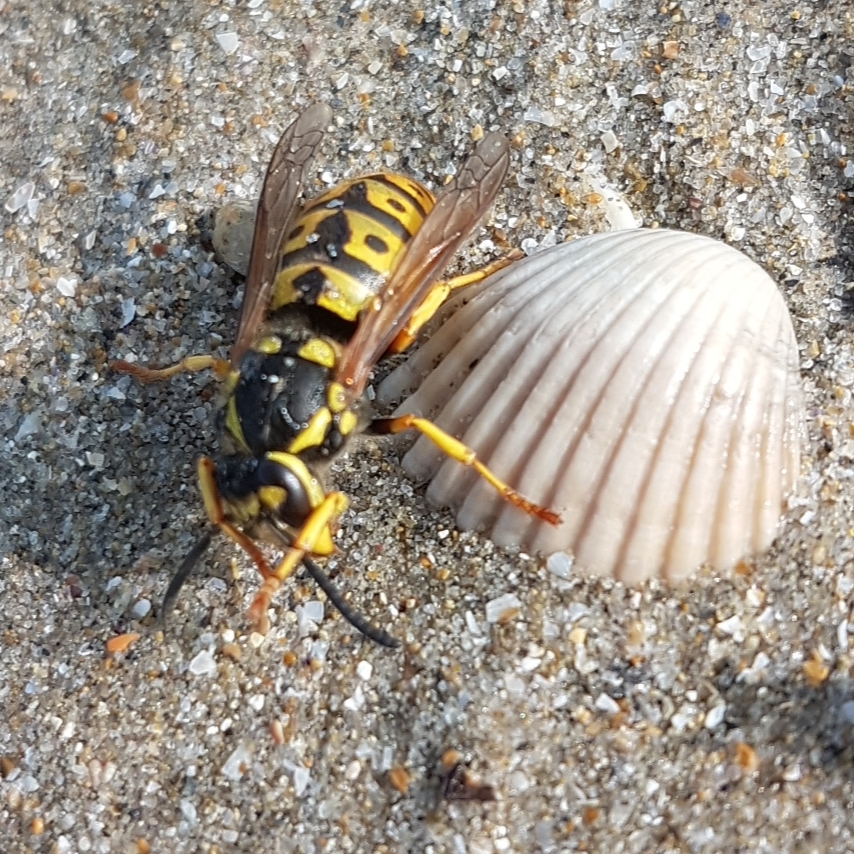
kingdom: Animalia
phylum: Arthropoda
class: Insecta
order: Hymenoptera
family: Vespidae
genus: Vespula
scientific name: Vespula germanica
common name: German wasp
